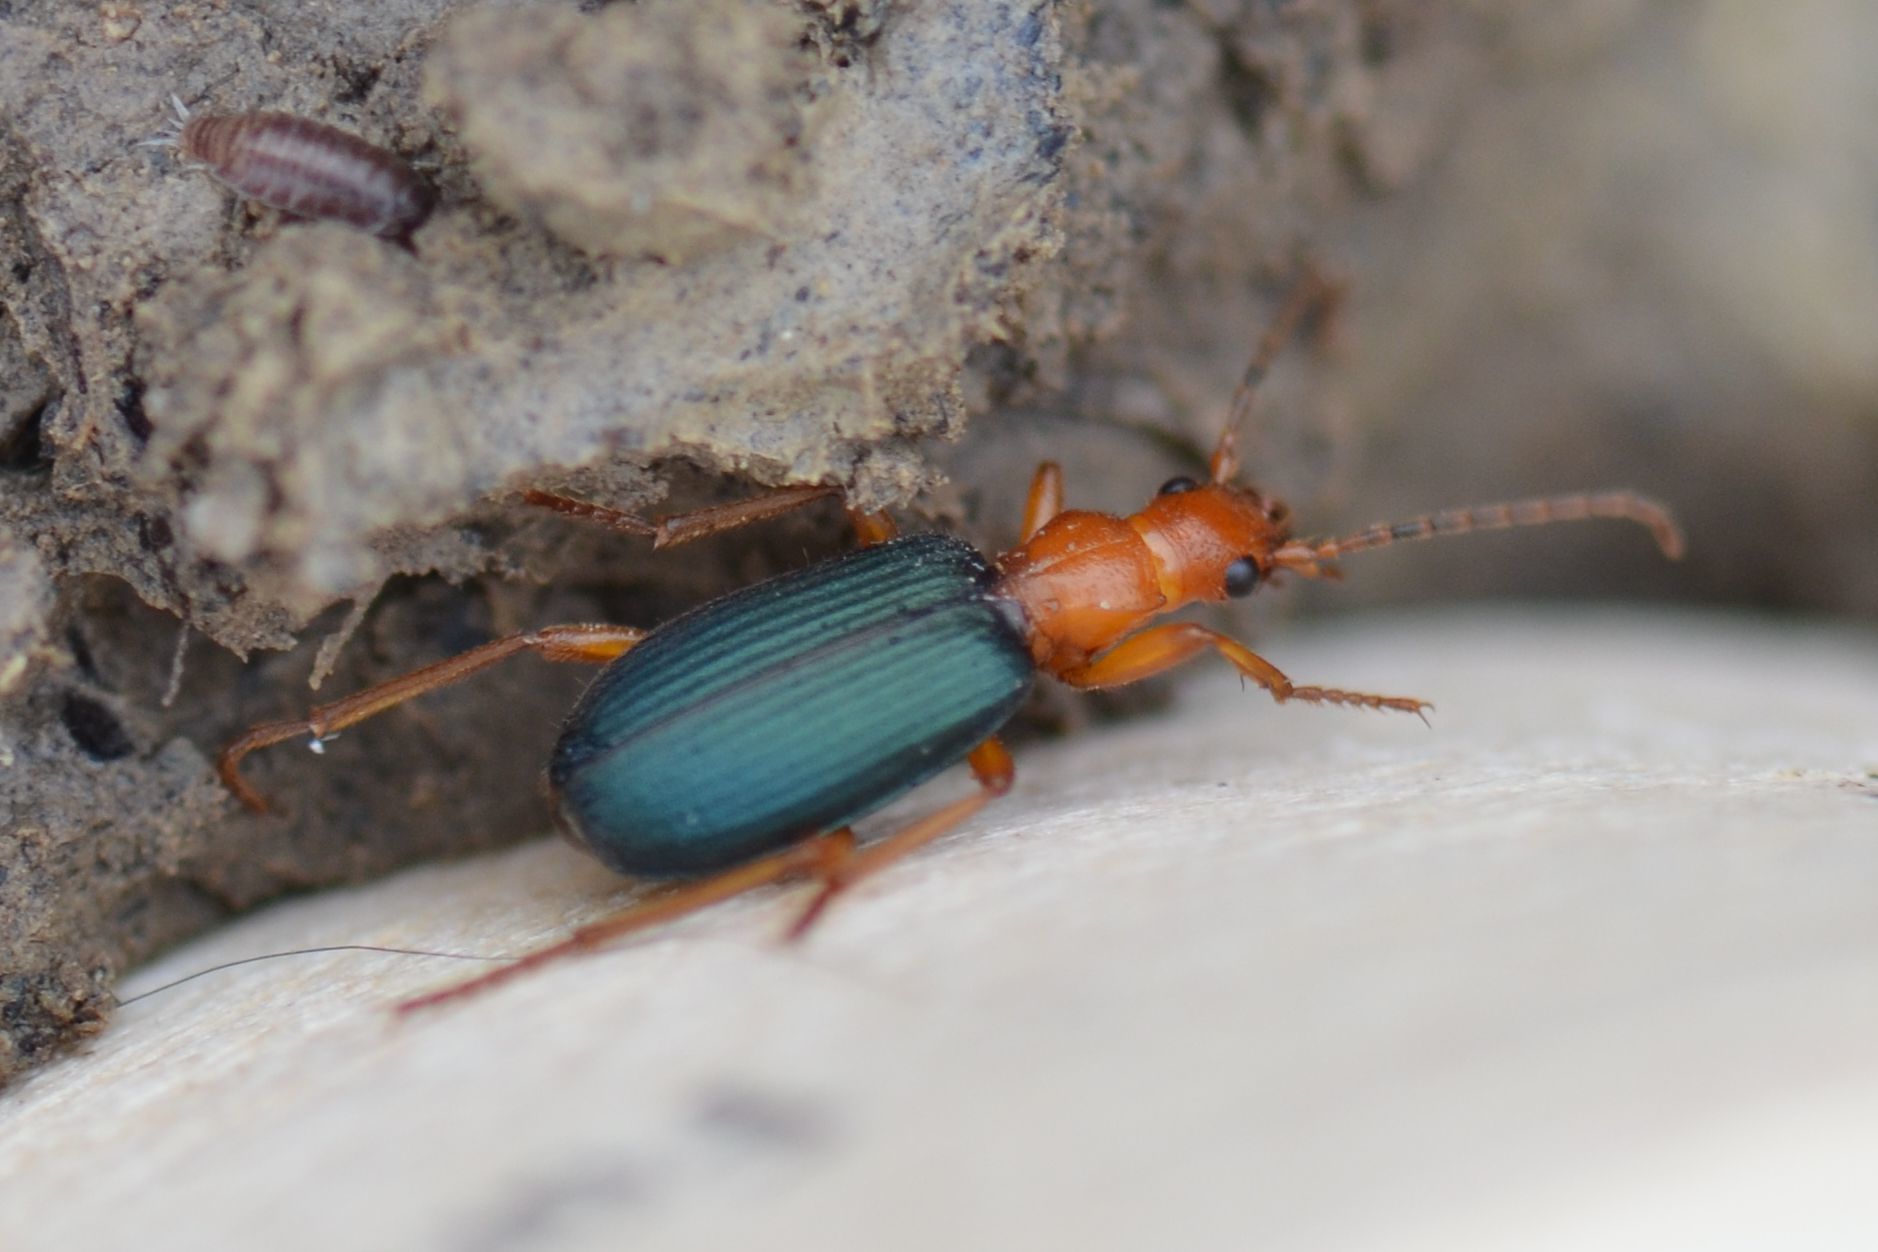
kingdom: Animalia
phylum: Arthropoda
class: Insecta
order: Coleoptera
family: Carabidae
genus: Brachinus
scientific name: Brachinus crepitans
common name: Bombadier beetle
